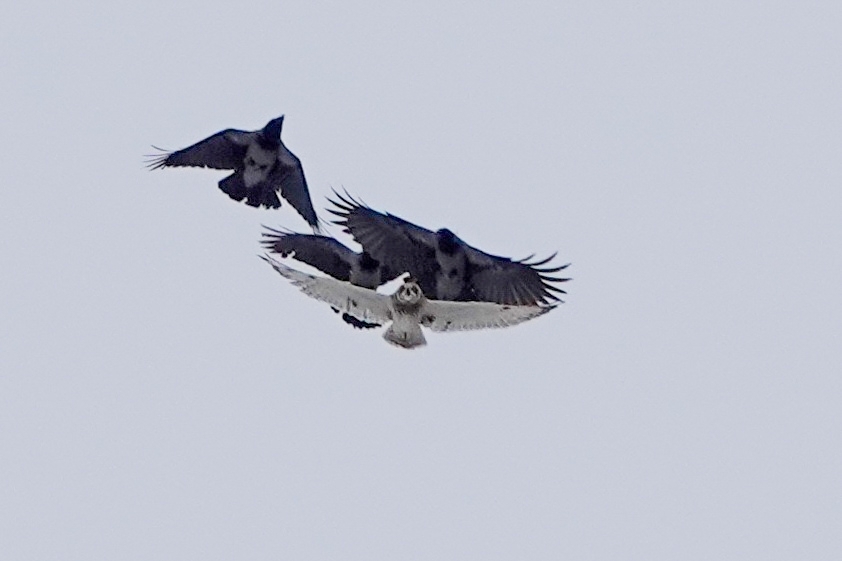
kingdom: Animalia
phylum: Chordata
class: Aves
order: Strigiformes
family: Strigidae
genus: Asio
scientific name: Asio flammeus
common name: Short-eared owl
